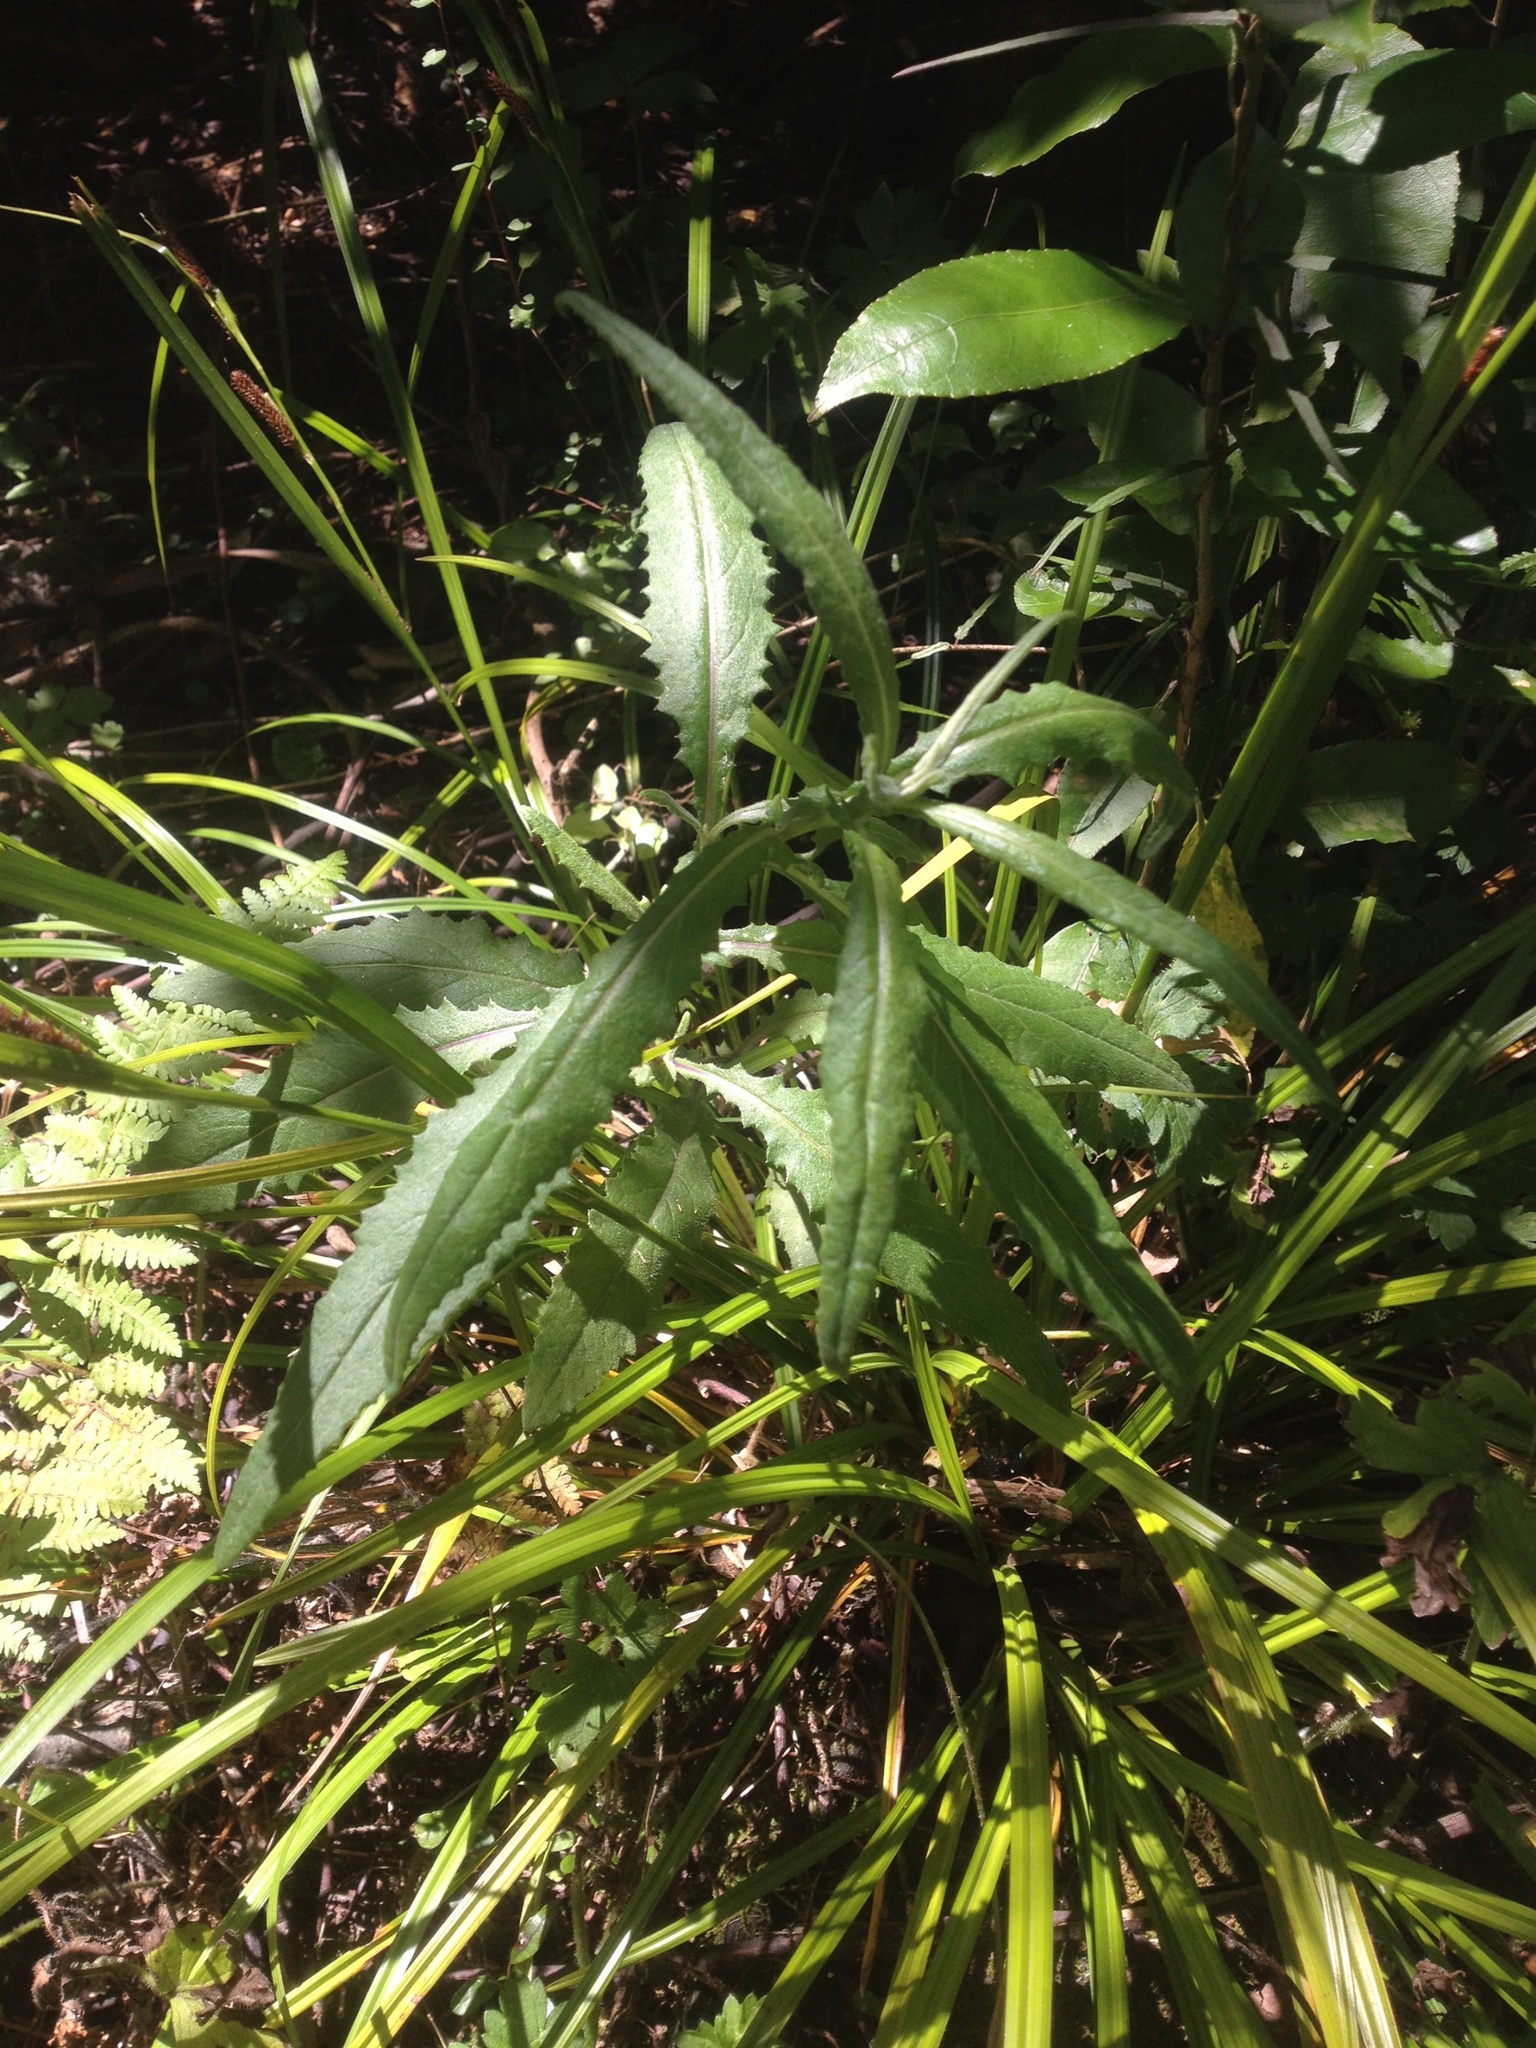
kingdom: Plantae
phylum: Tracheophyta
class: Magnoliopsida
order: Asterales
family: Asteraceae
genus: Senecio
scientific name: Senecio minimus
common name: Toothed fireweed
